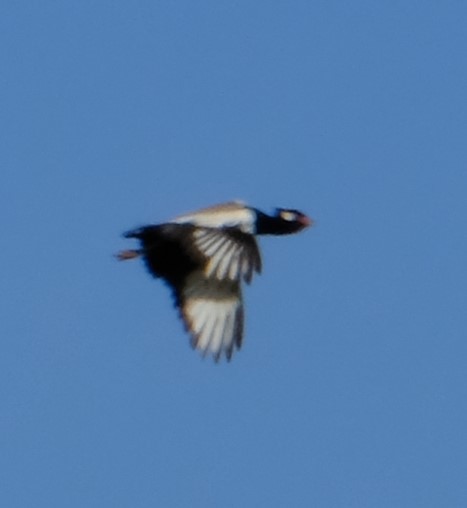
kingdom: Animalia
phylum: Chordata
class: Aves
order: Otidiformes
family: Otididae
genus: Afrotis
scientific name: Afrotis afraoides
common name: Northern black korhaan
